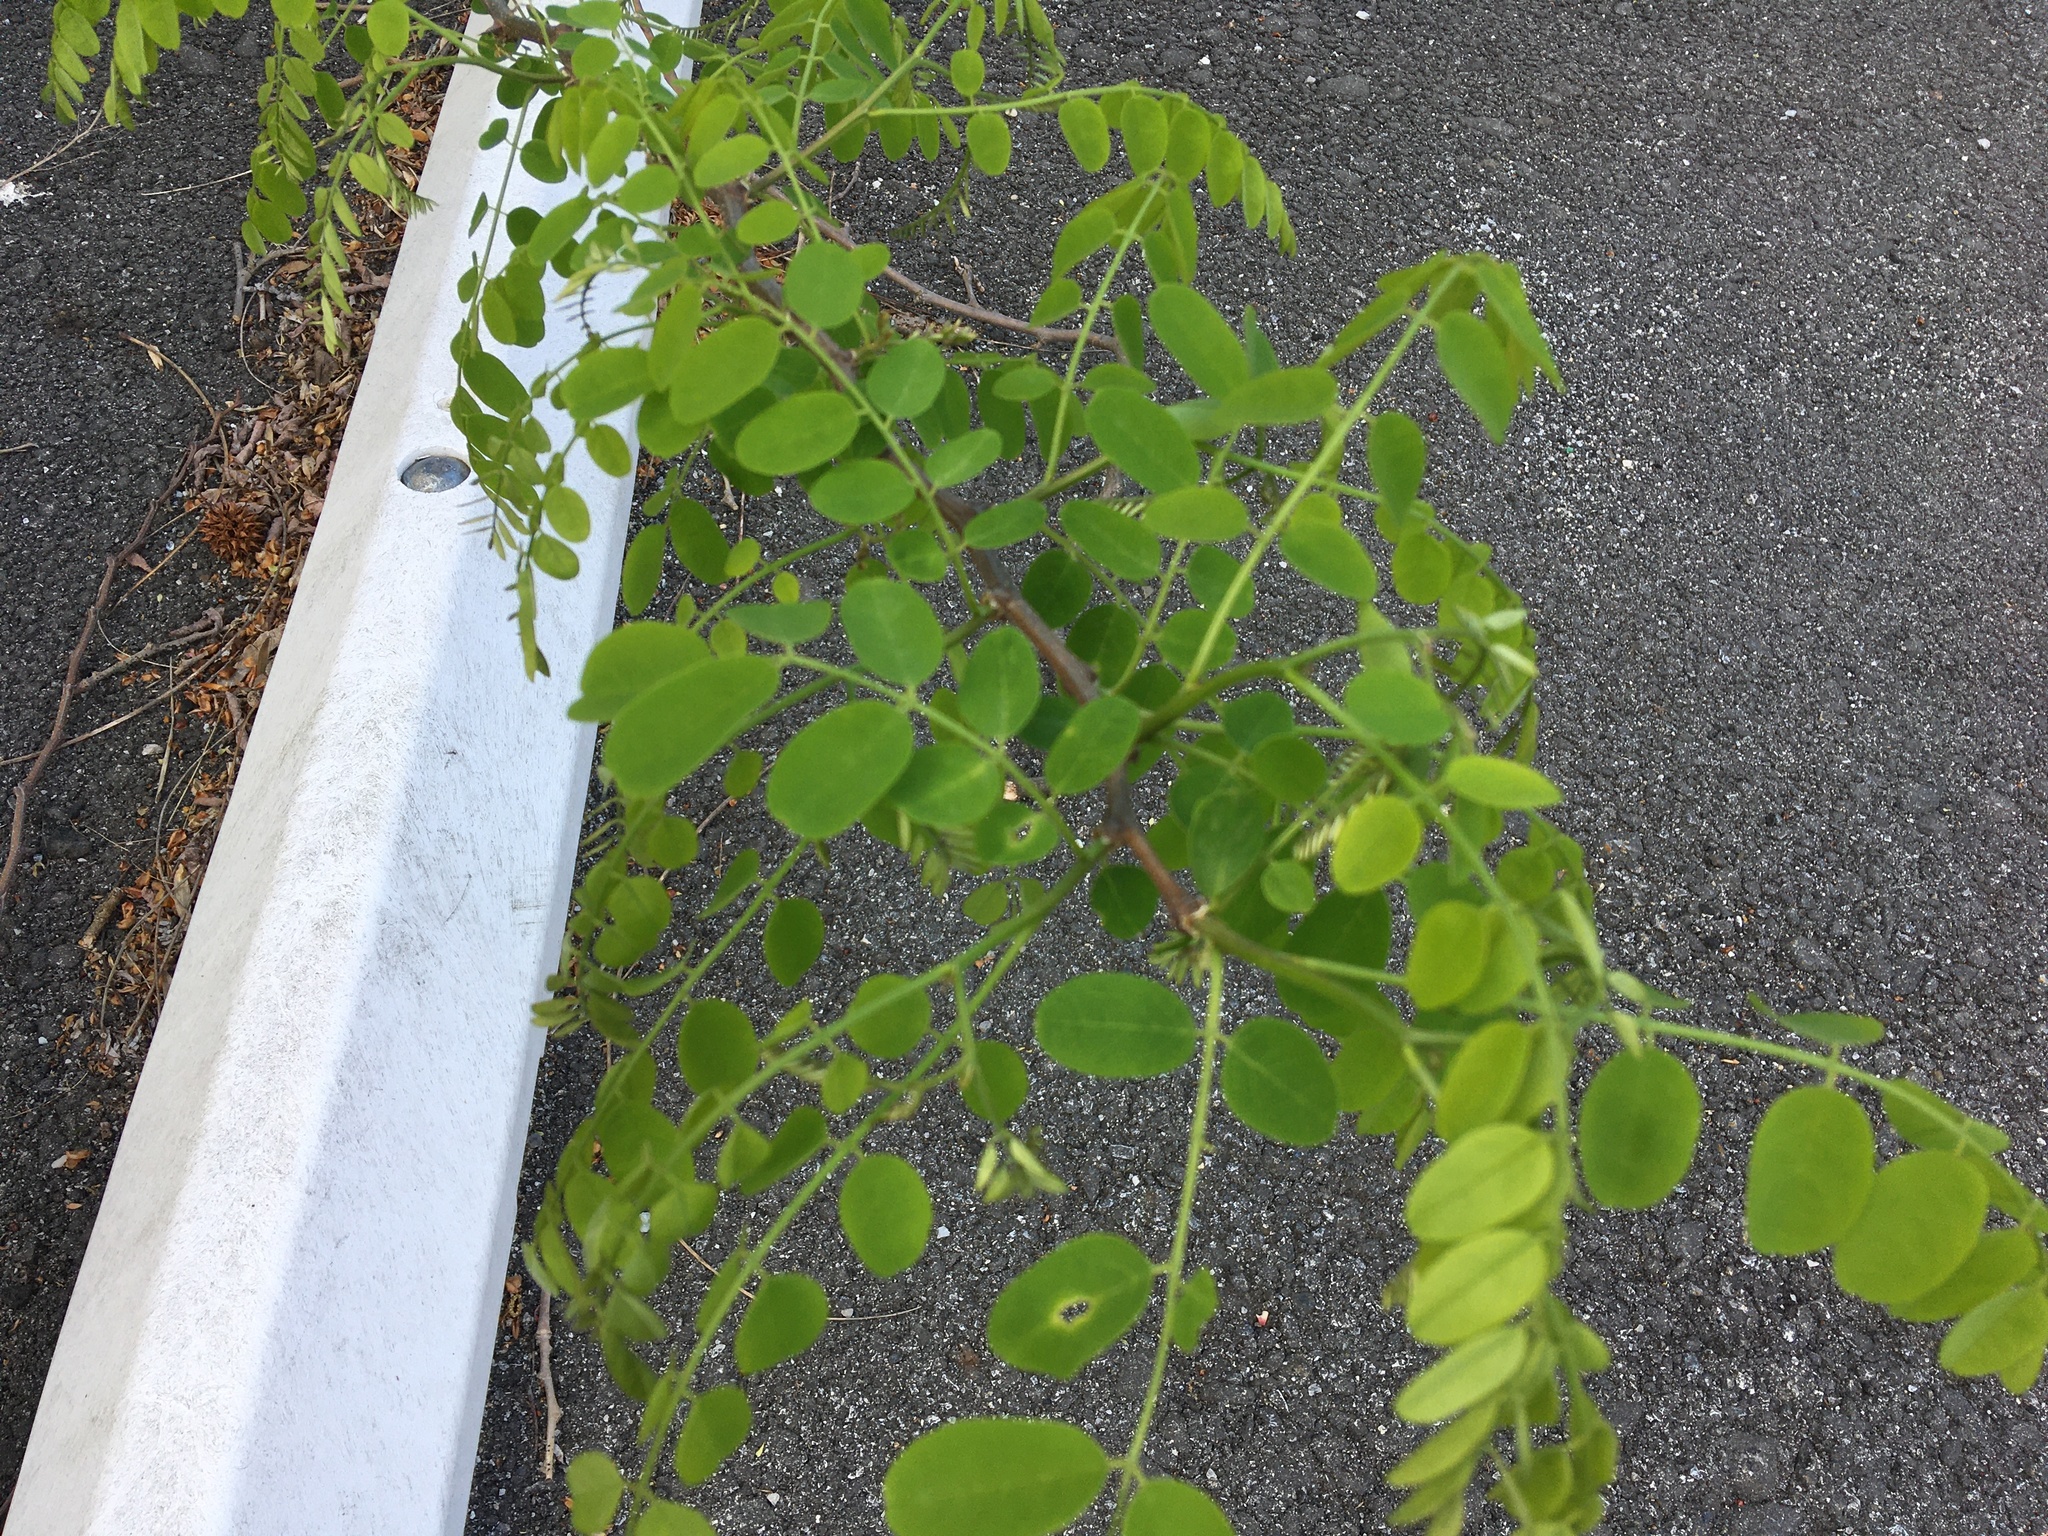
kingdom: Plantae
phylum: Tracheophyta
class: Magnoliopsida
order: Fabales
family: Fabaceae
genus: Robinia
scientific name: Robinia pseudoacacia
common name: Black locust
